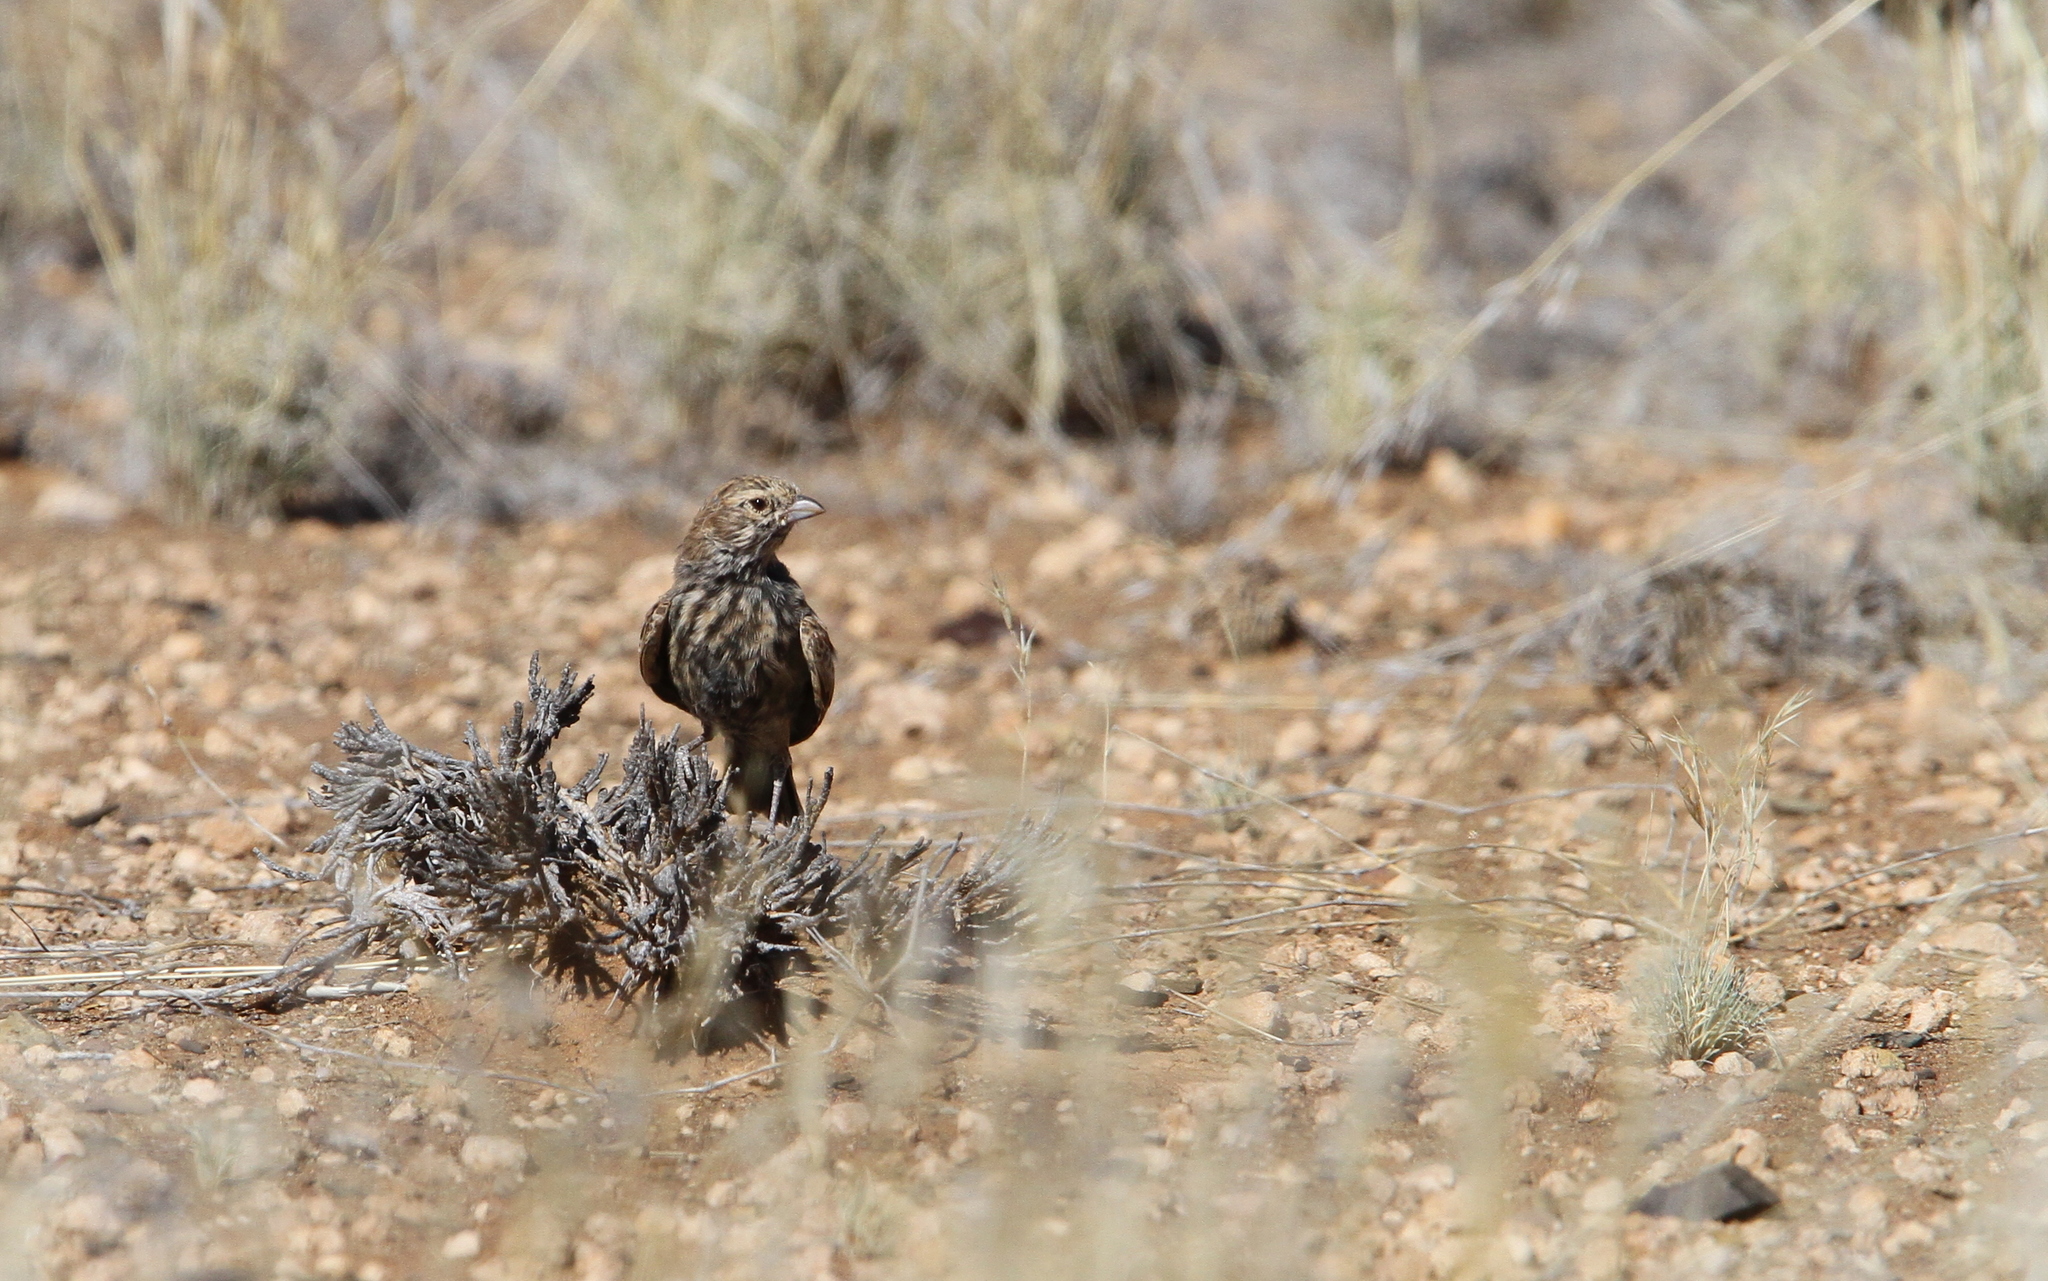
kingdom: Animalia
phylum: Chordata
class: Aves
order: Passeriformes
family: Alaudidae
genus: Eremopterix
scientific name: Eremopterix australis
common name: Black-eared sparrow-lark
